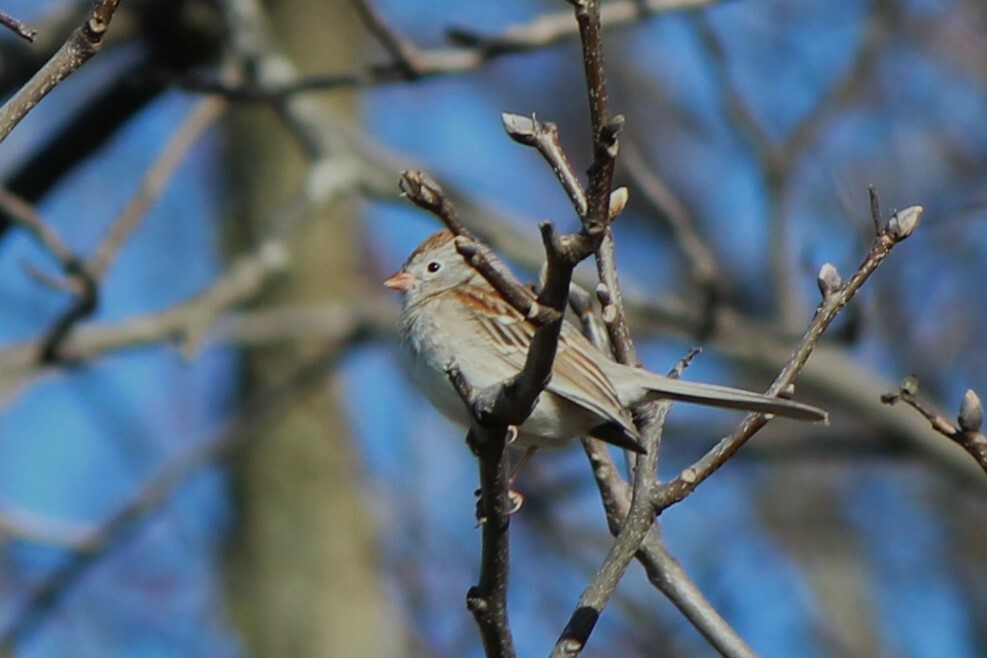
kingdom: Animalia
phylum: Chordata
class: Aves
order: Passeriformes
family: Passerellidae
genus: Spizella
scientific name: Spizella pusilla
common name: Field sparrow
